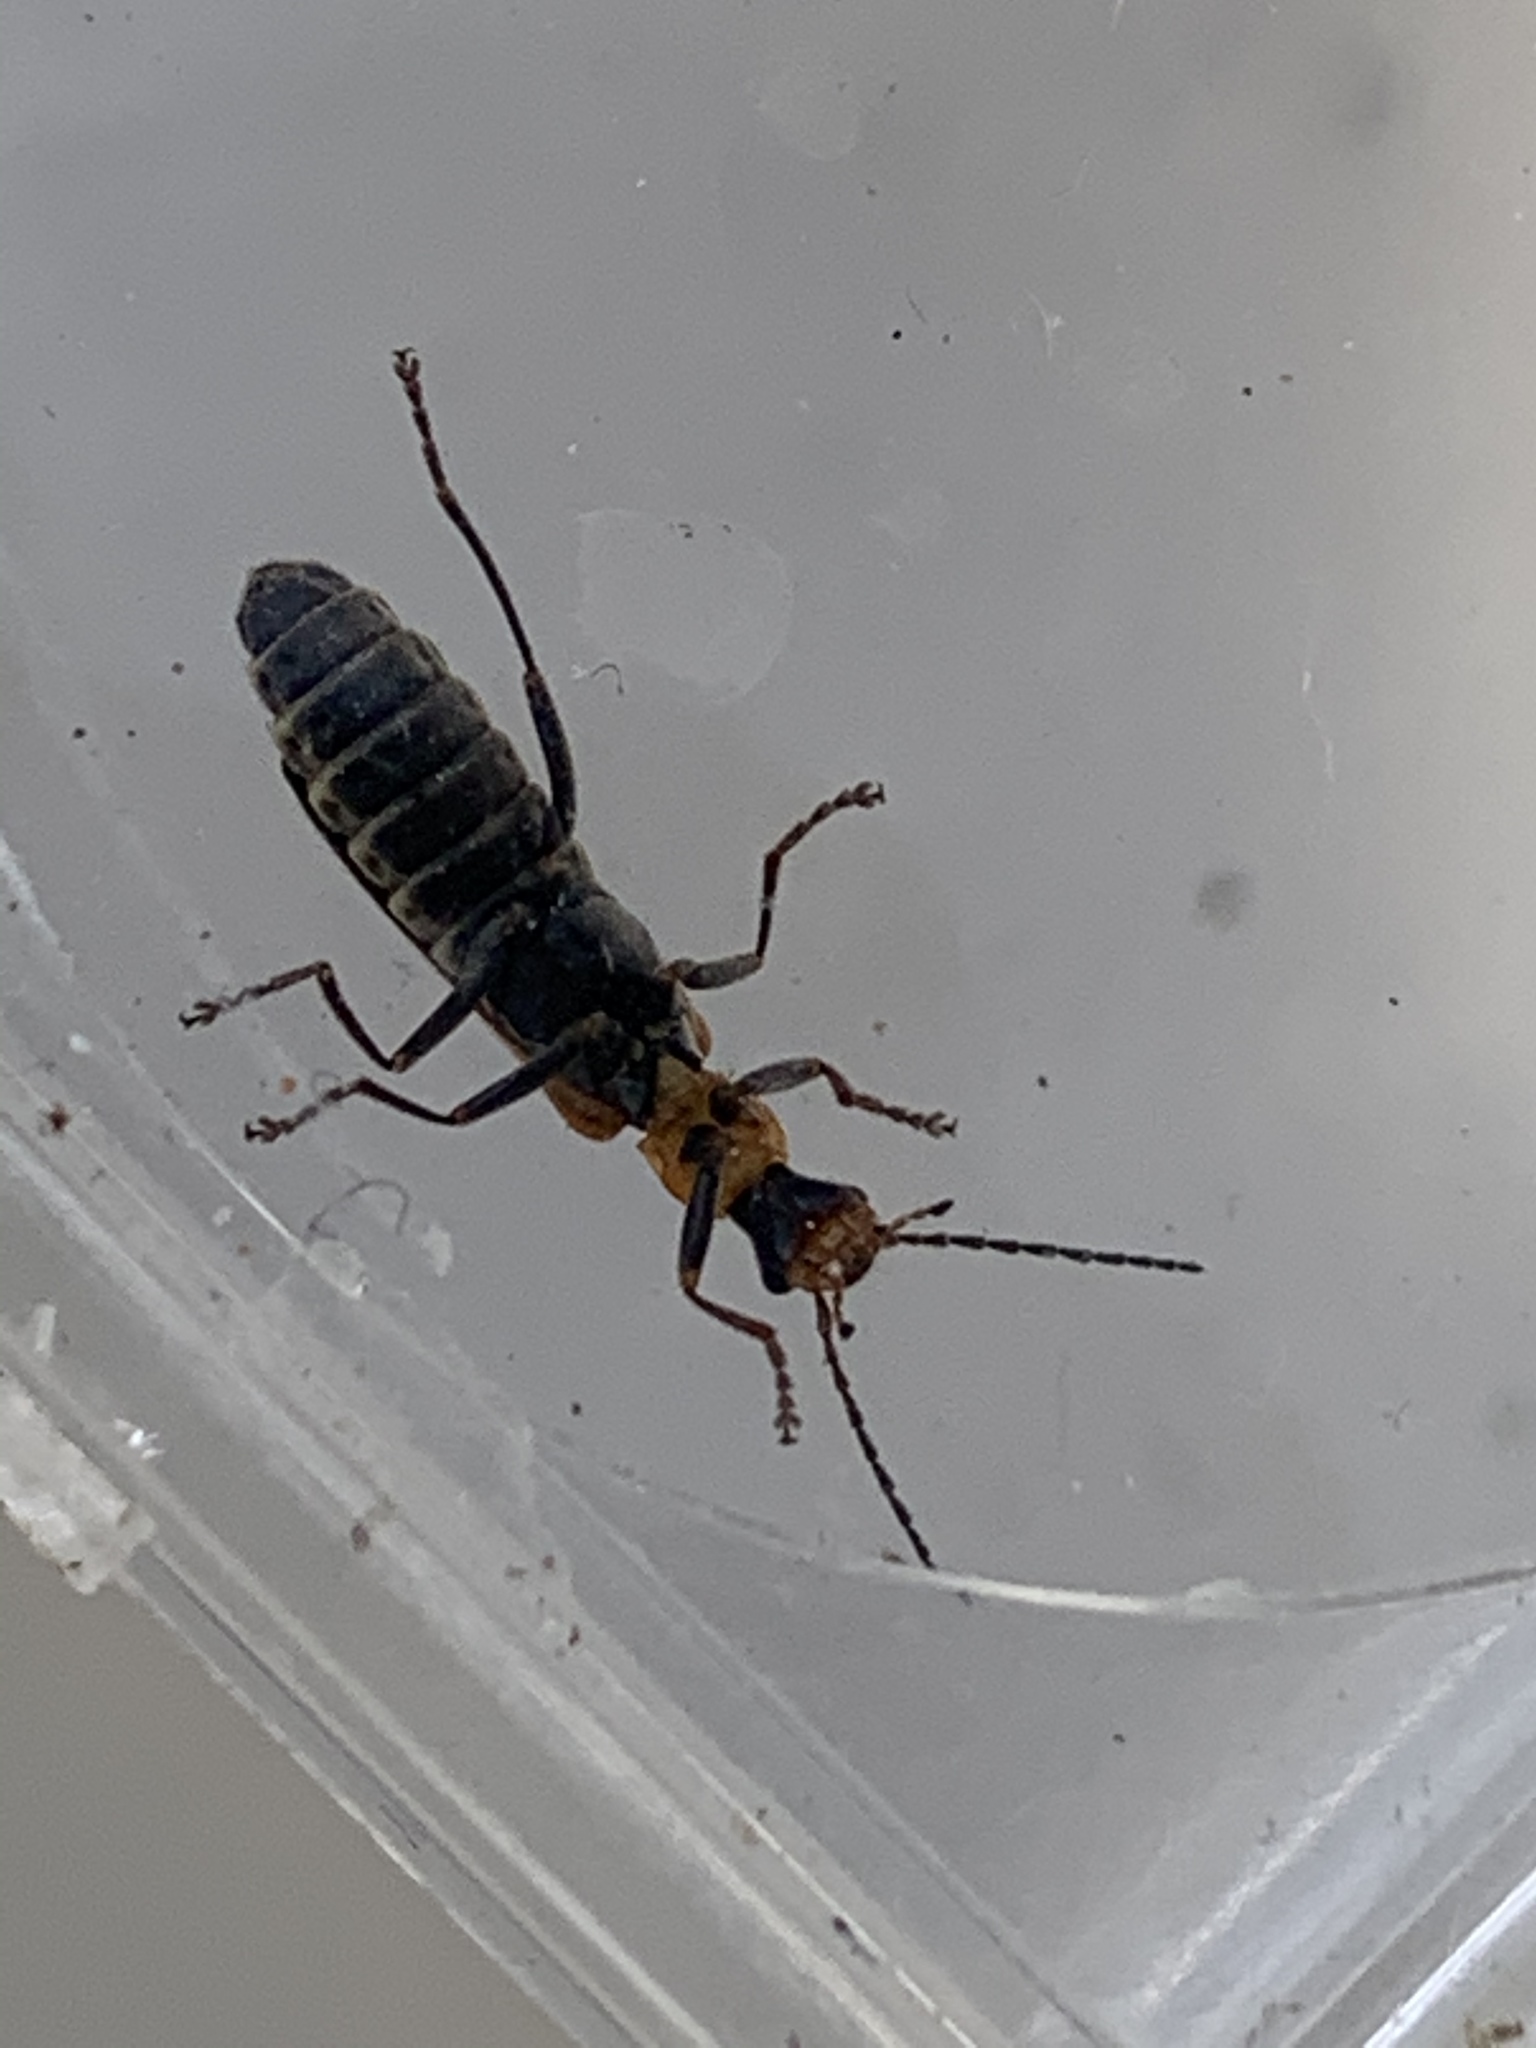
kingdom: Animalia
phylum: Arthropoda
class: Insecta
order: Coleoptera
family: Cantharidae
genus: Dichelotarsus
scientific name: Dichelotarsus cavicollis
